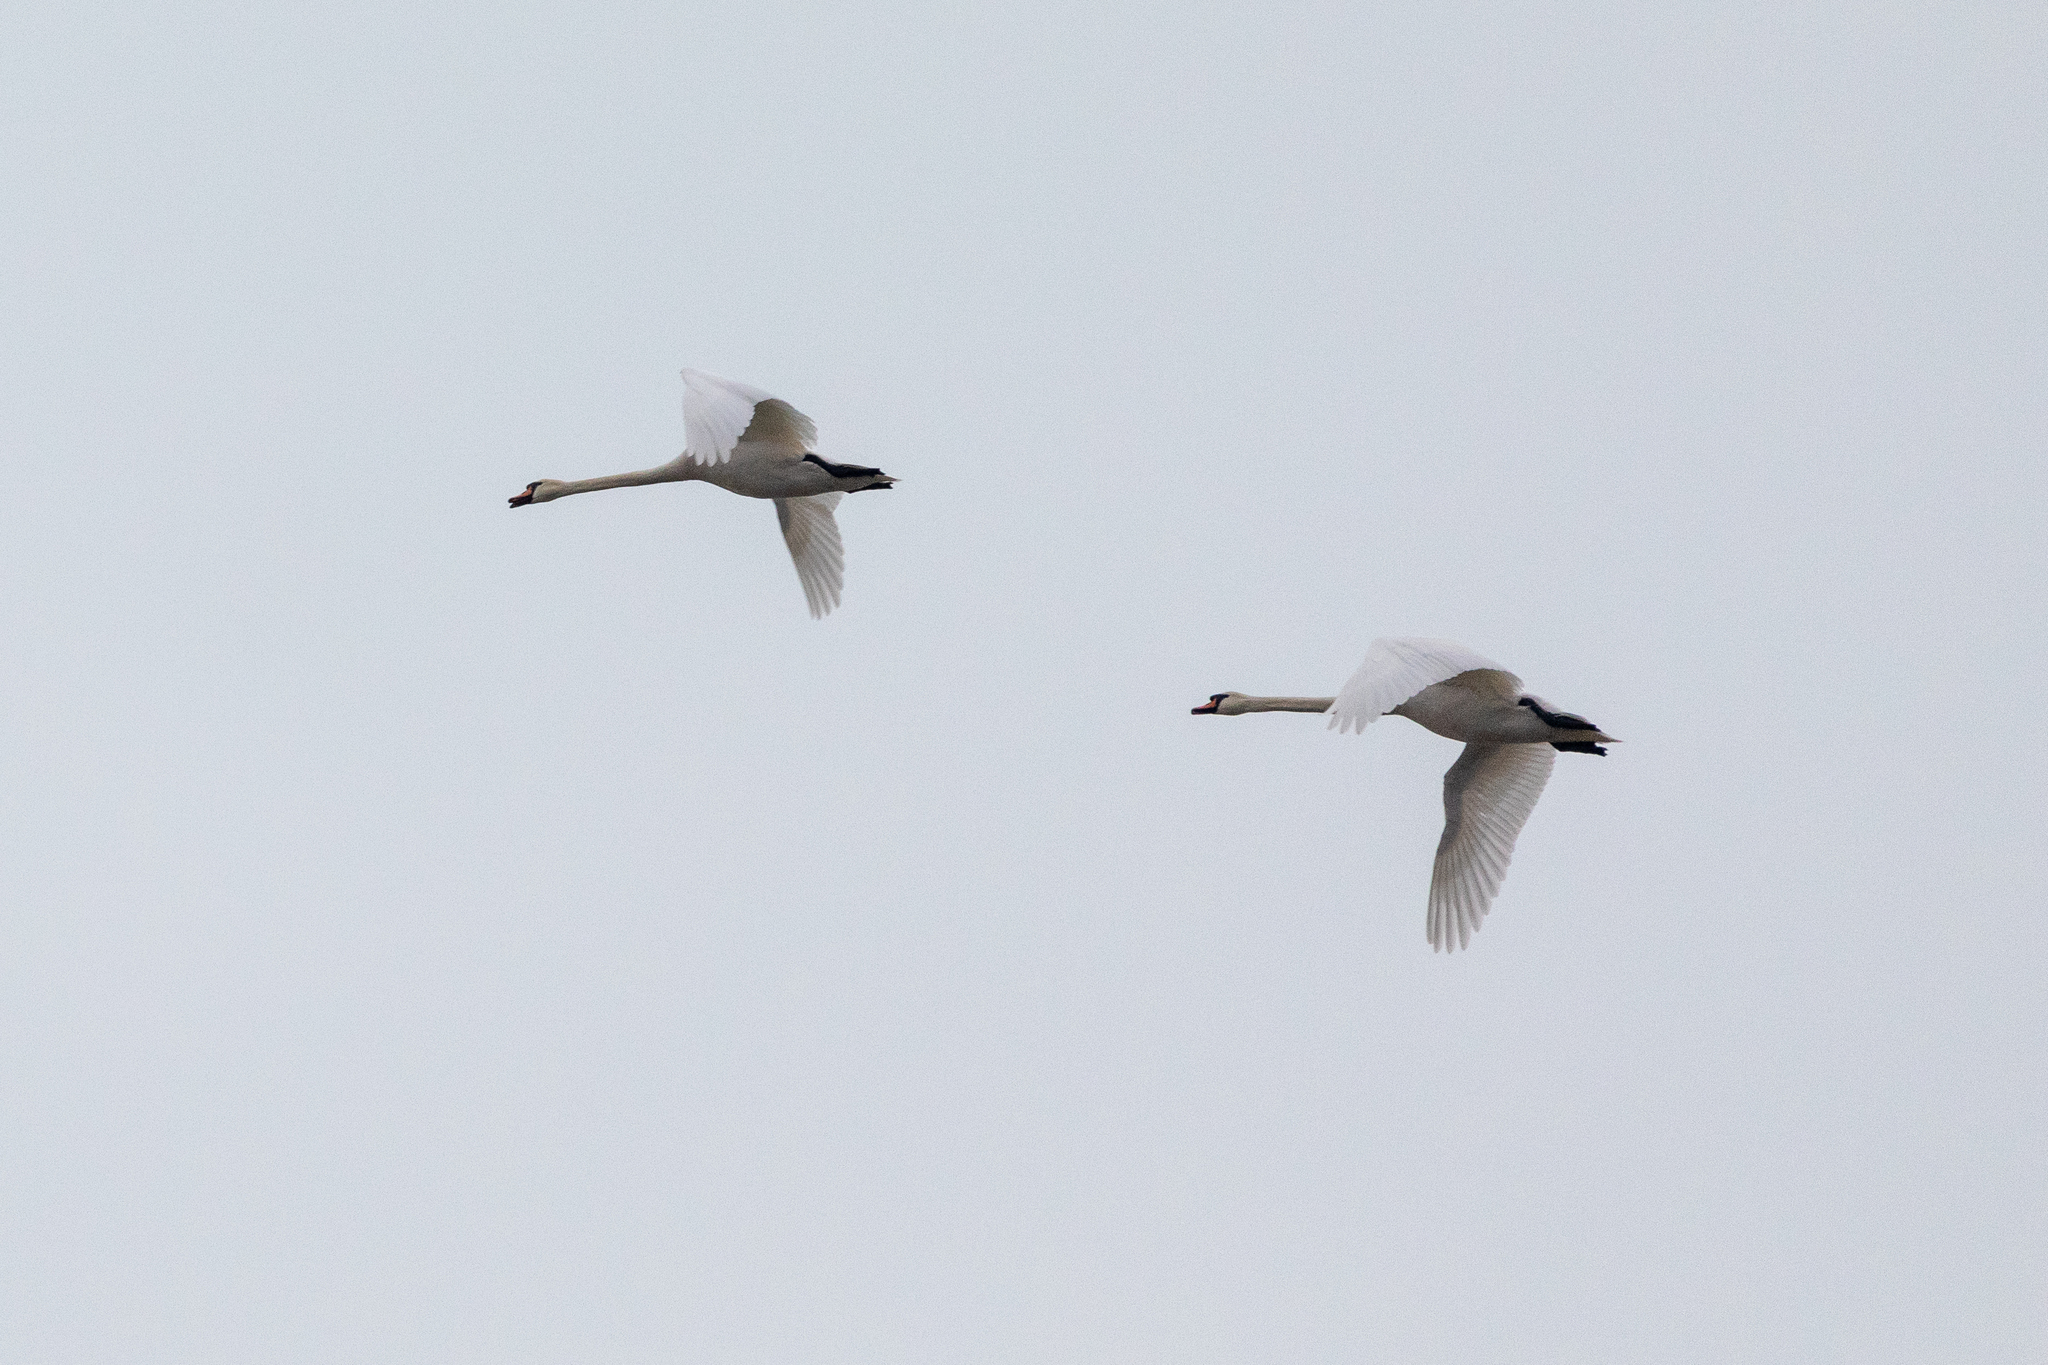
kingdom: Animalia
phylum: Chordata
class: Aves
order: Anseriformes
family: Anatidae
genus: Cygnus
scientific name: Cygnus olor
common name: Mute swan
